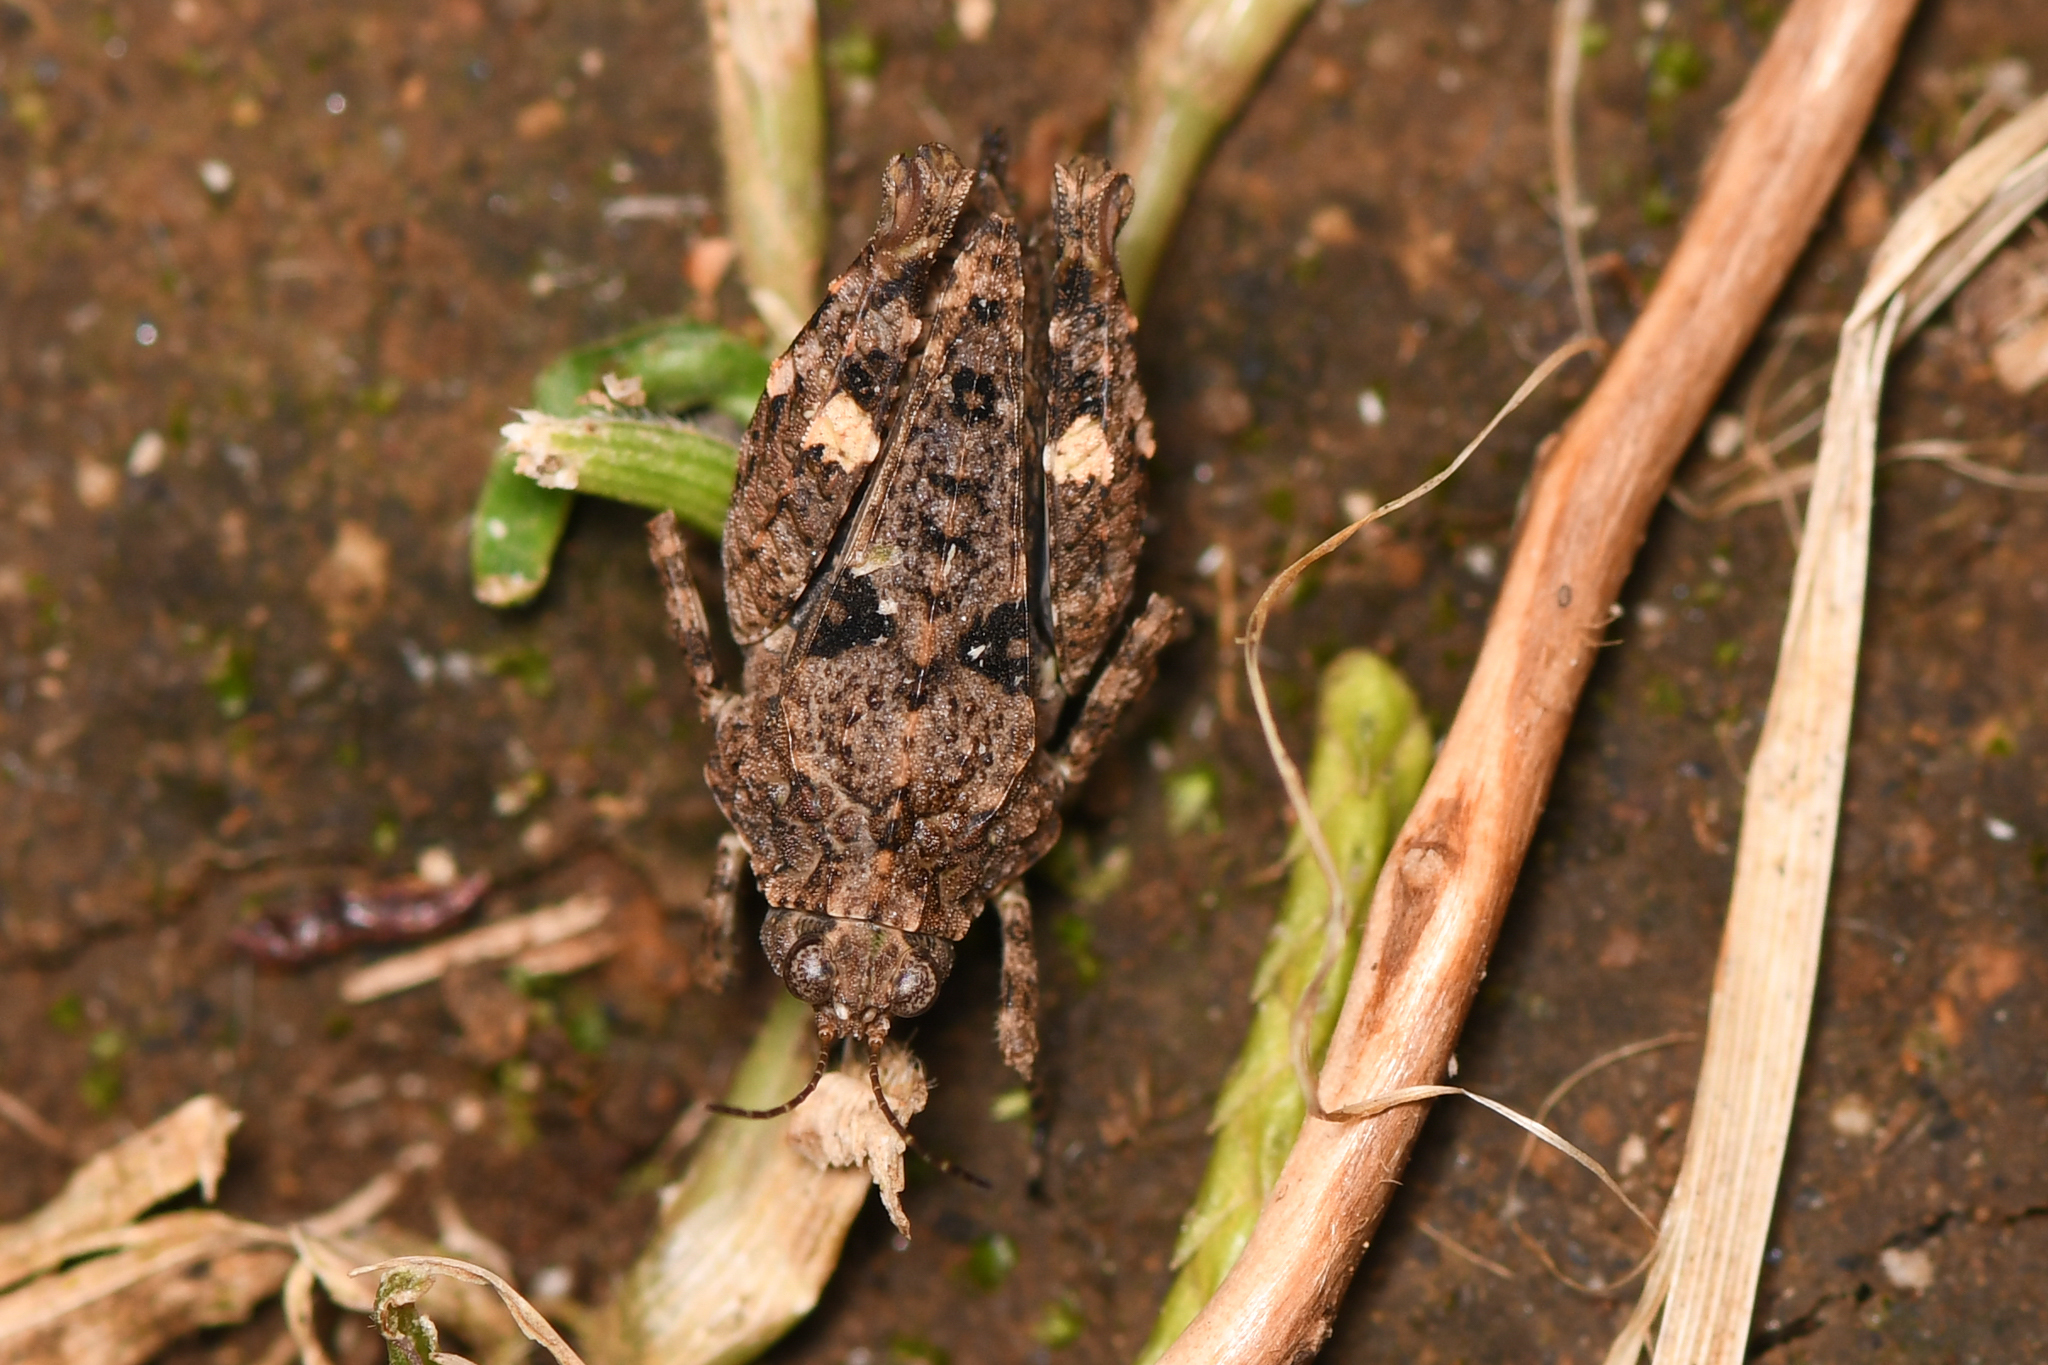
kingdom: Animalia
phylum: Arthropoda
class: Insecta
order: Orthoptera
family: Tetrigidae
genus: Paratettix
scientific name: Paratettix mexicanus
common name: Mexican pygmy grasshopper
